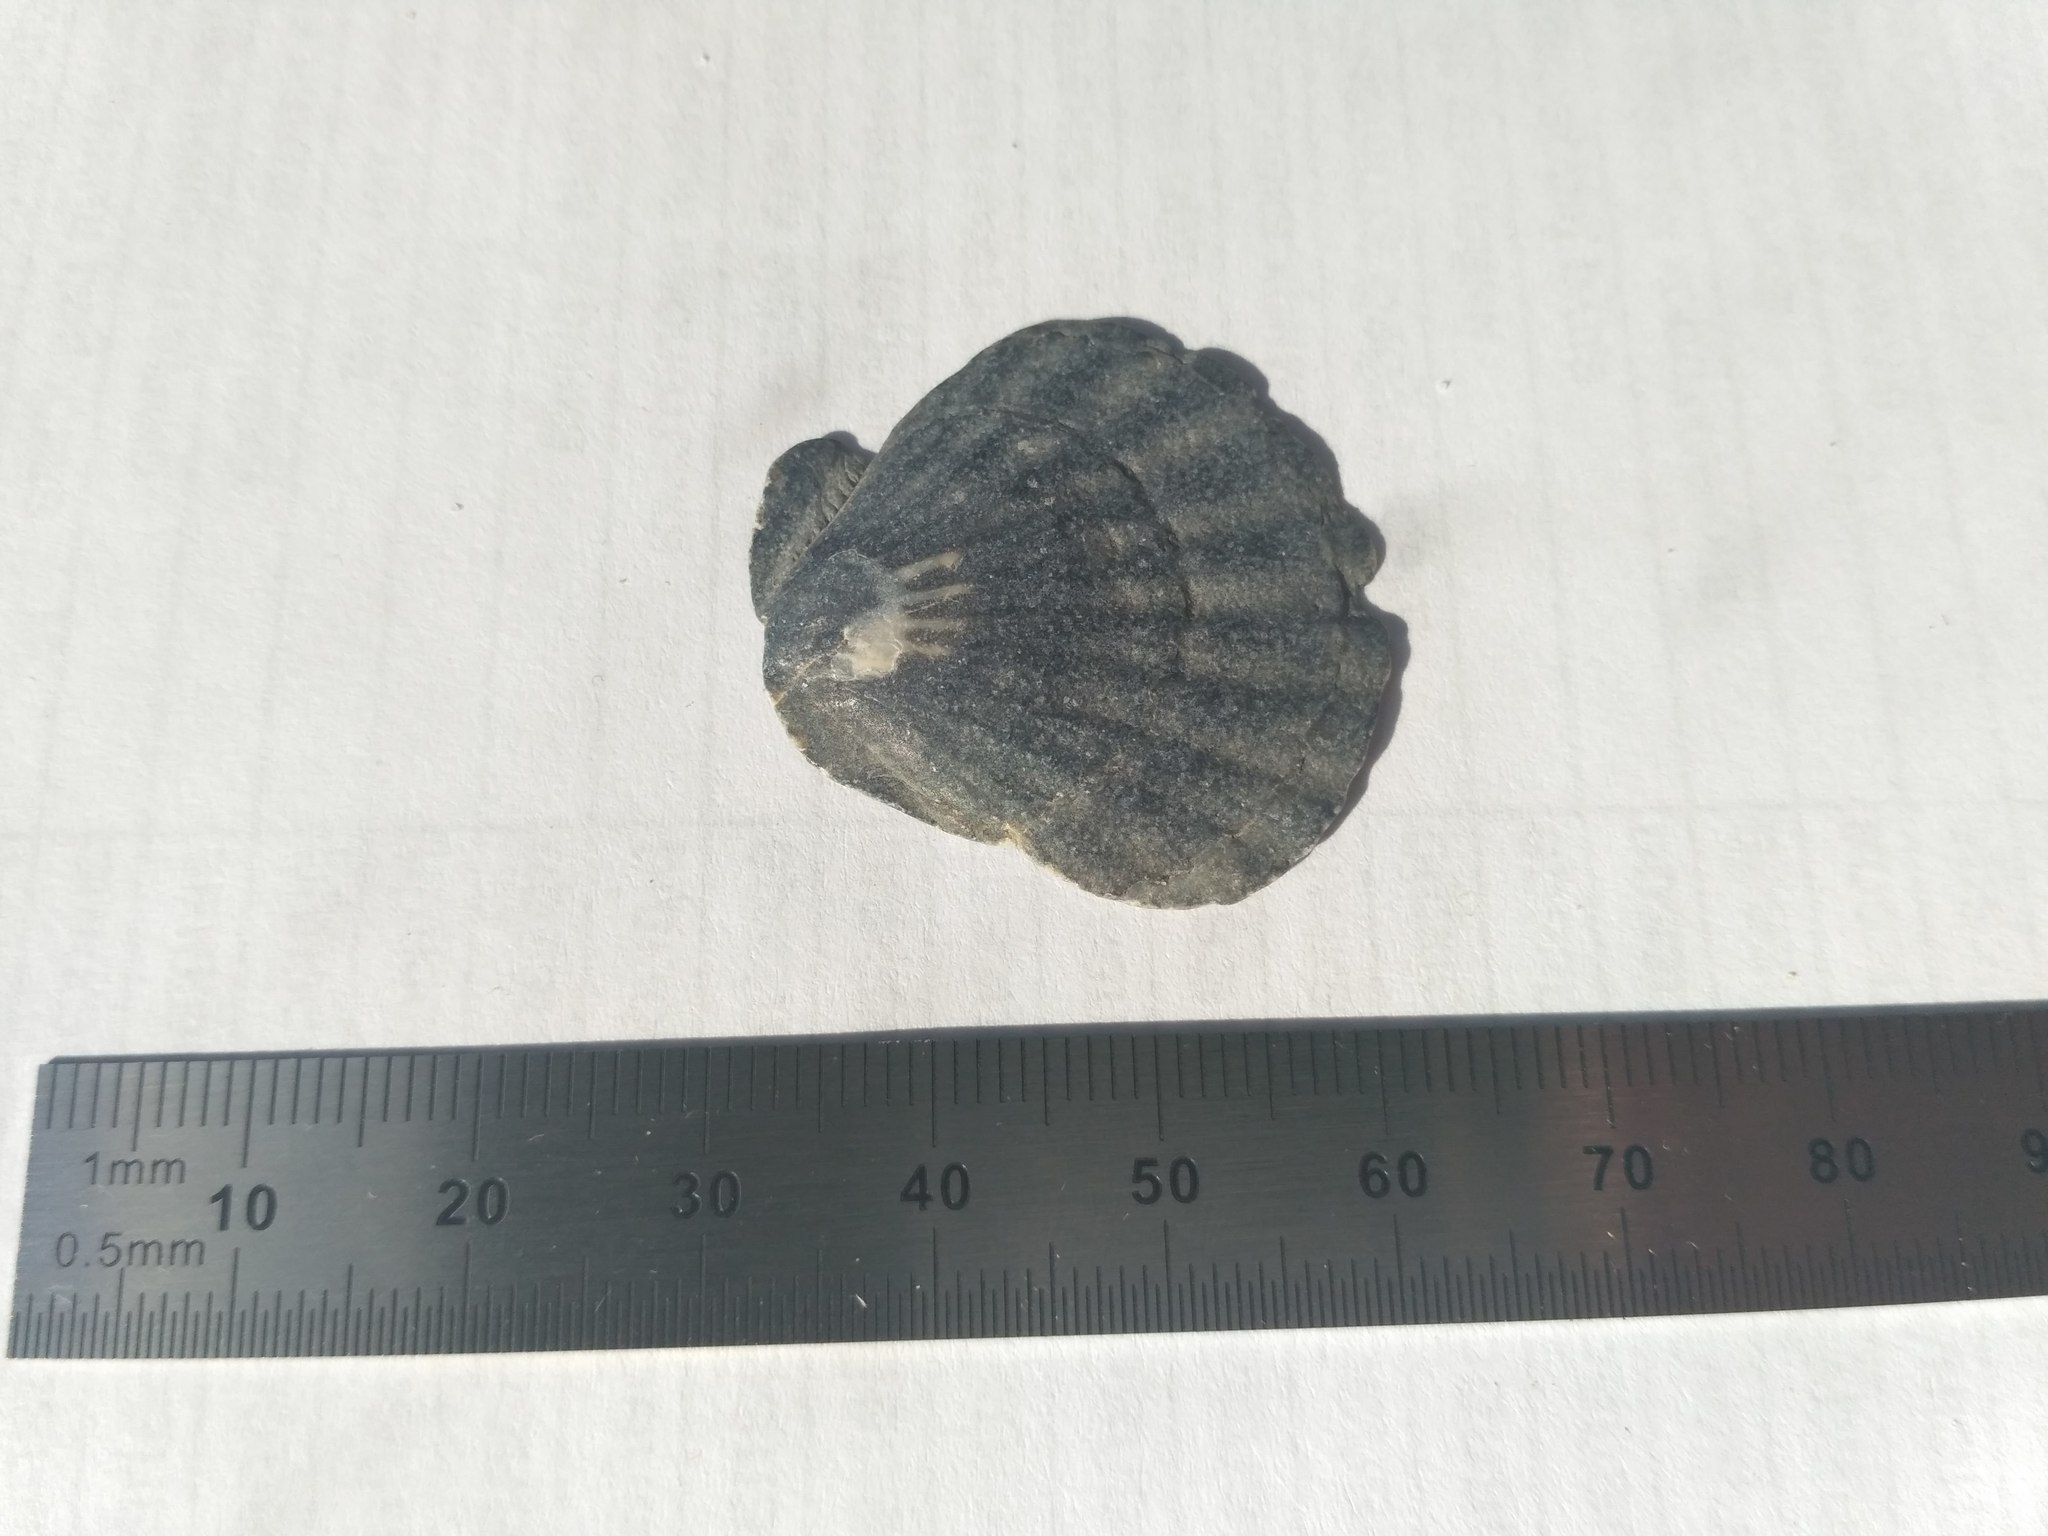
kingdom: Animalia
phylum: Mollusca
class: Bivalvia
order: Pectinida
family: Pectinidae
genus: Flexopecten
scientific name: Flexopecten glaber
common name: Smooth scallop
